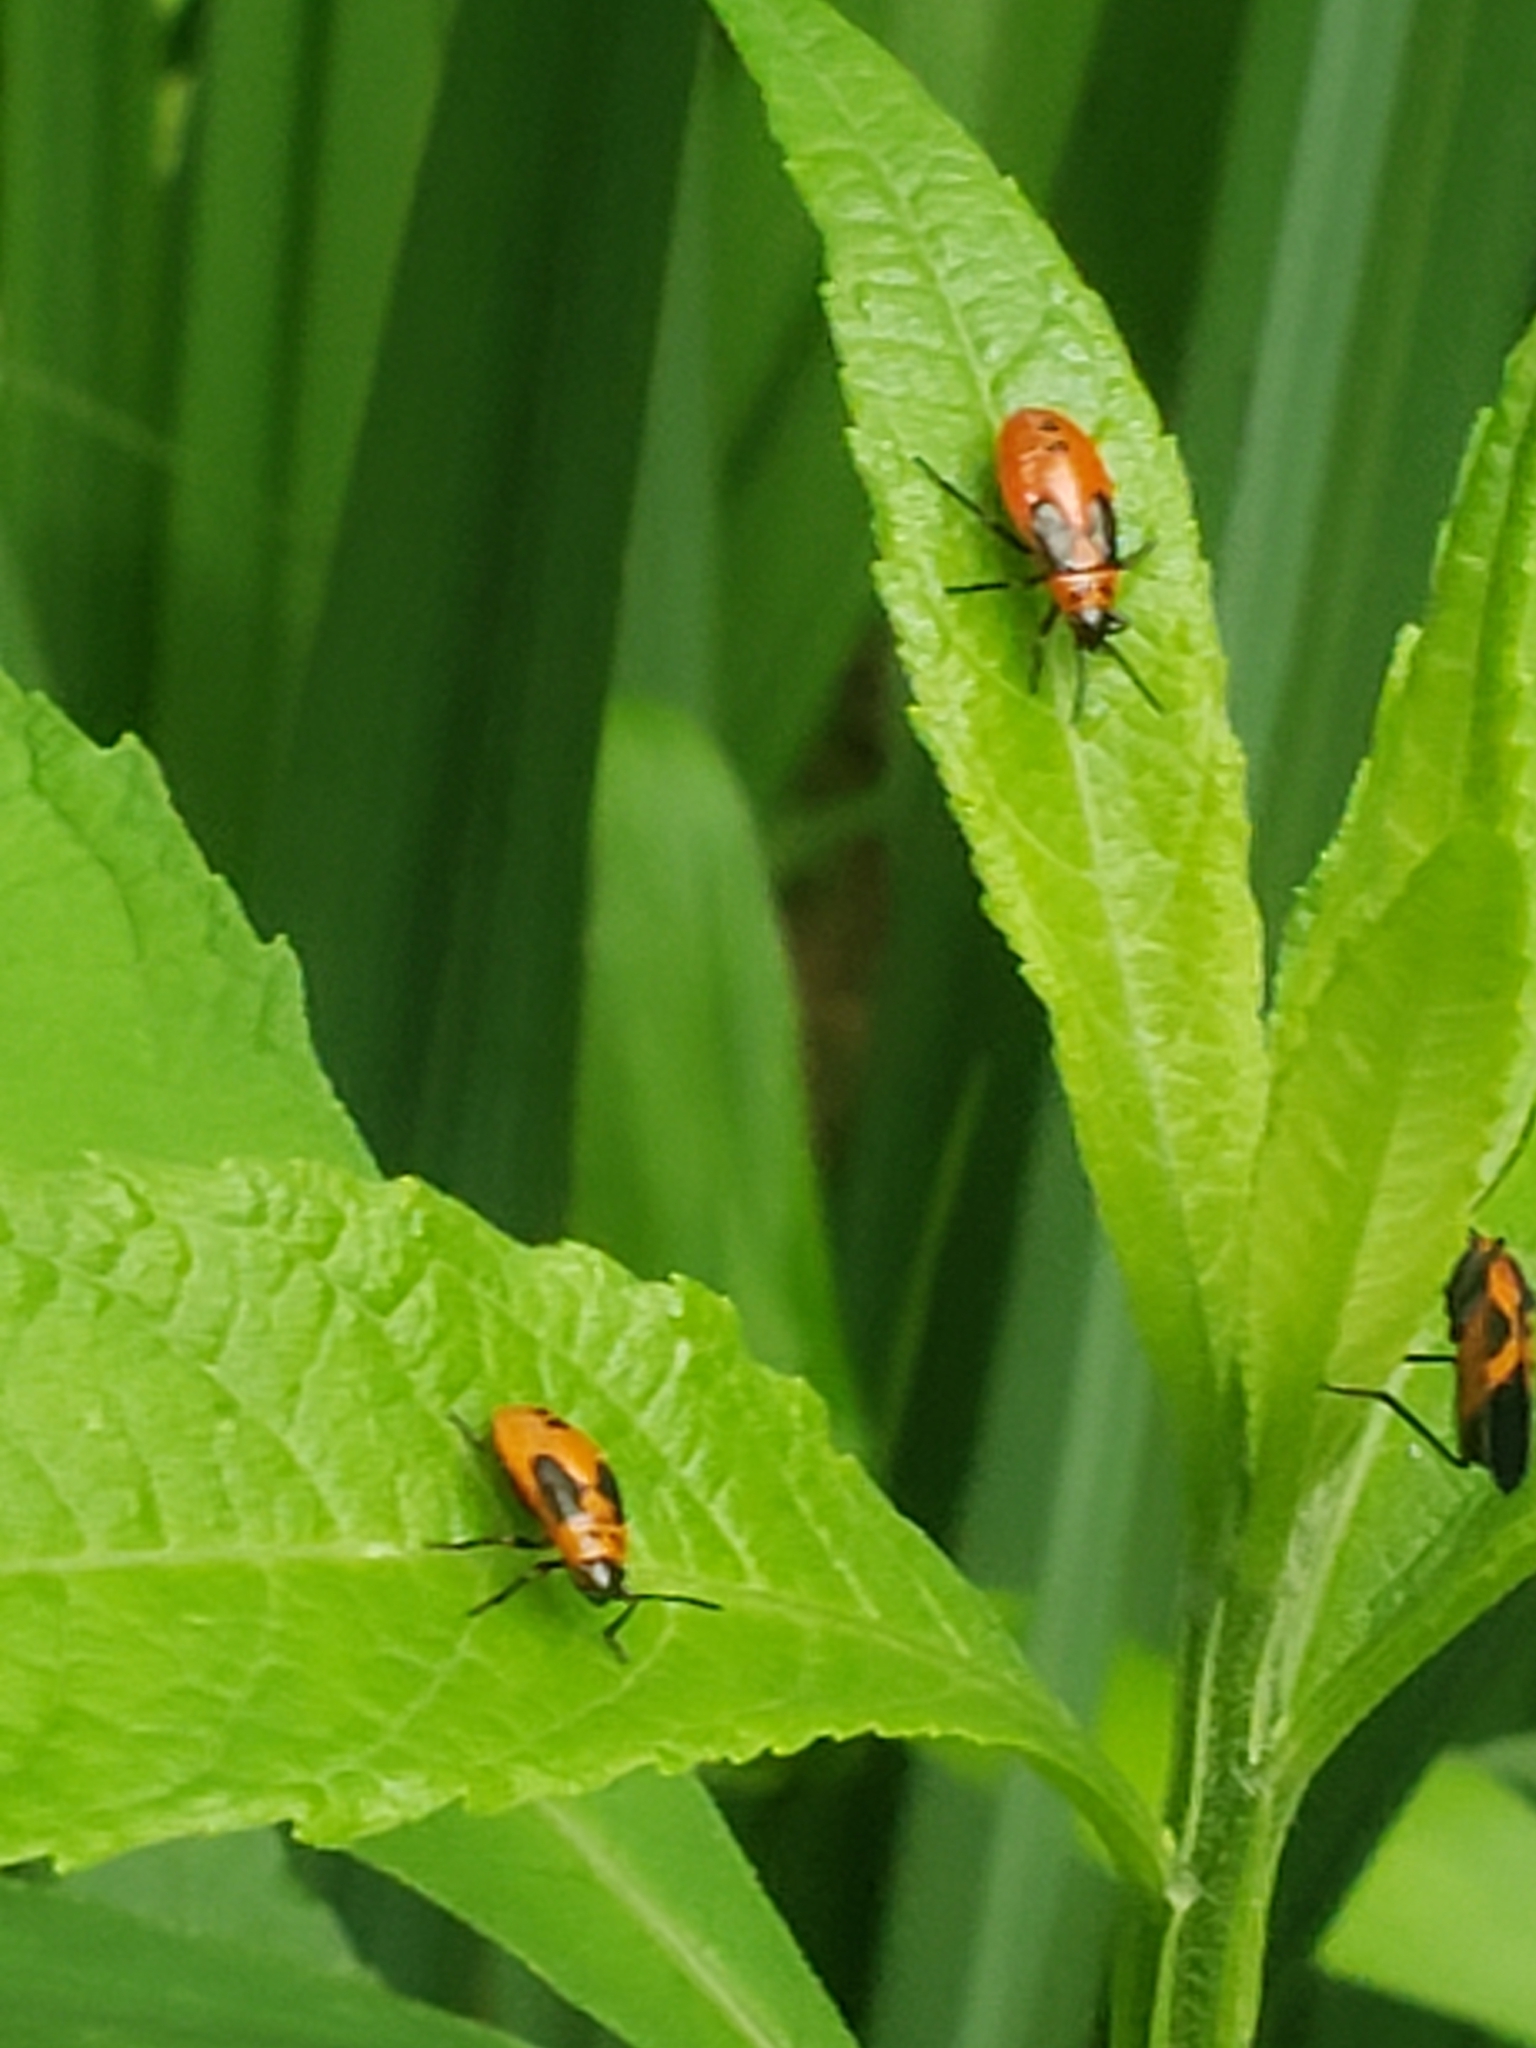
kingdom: Animalia
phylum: Arthropoda
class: Insecta
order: Hemiptera
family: Lygaeidae
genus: Lygaeus
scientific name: Lygaeus turcicus
